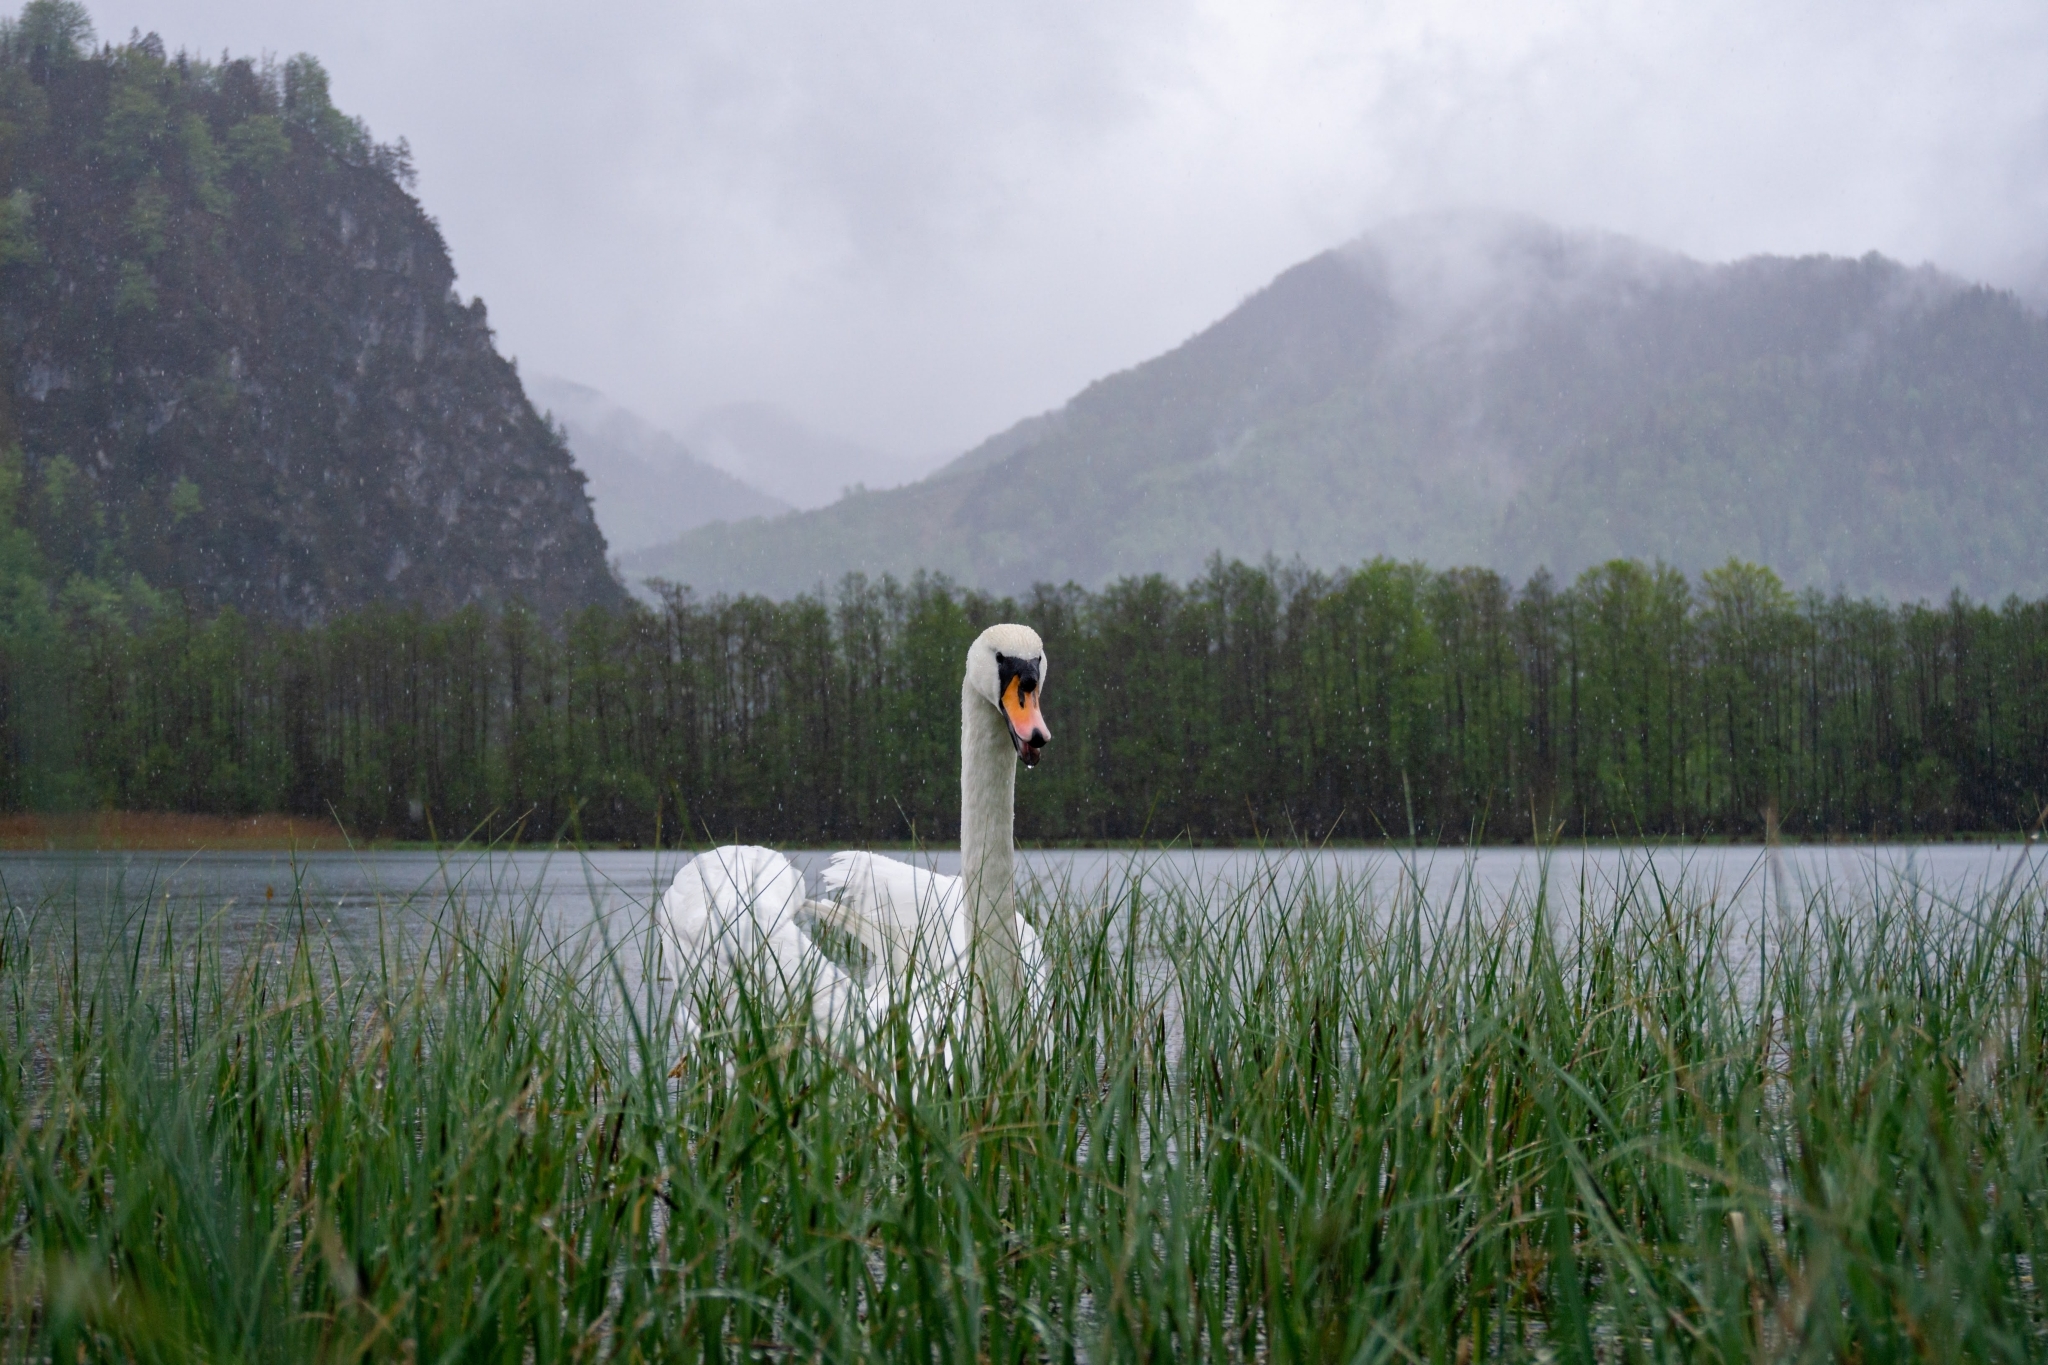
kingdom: Animalia
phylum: Chordata
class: Aves
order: Anseriformes
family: Anatidae
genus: Cygnus
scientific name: Cygnus olor
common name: Mute swan
